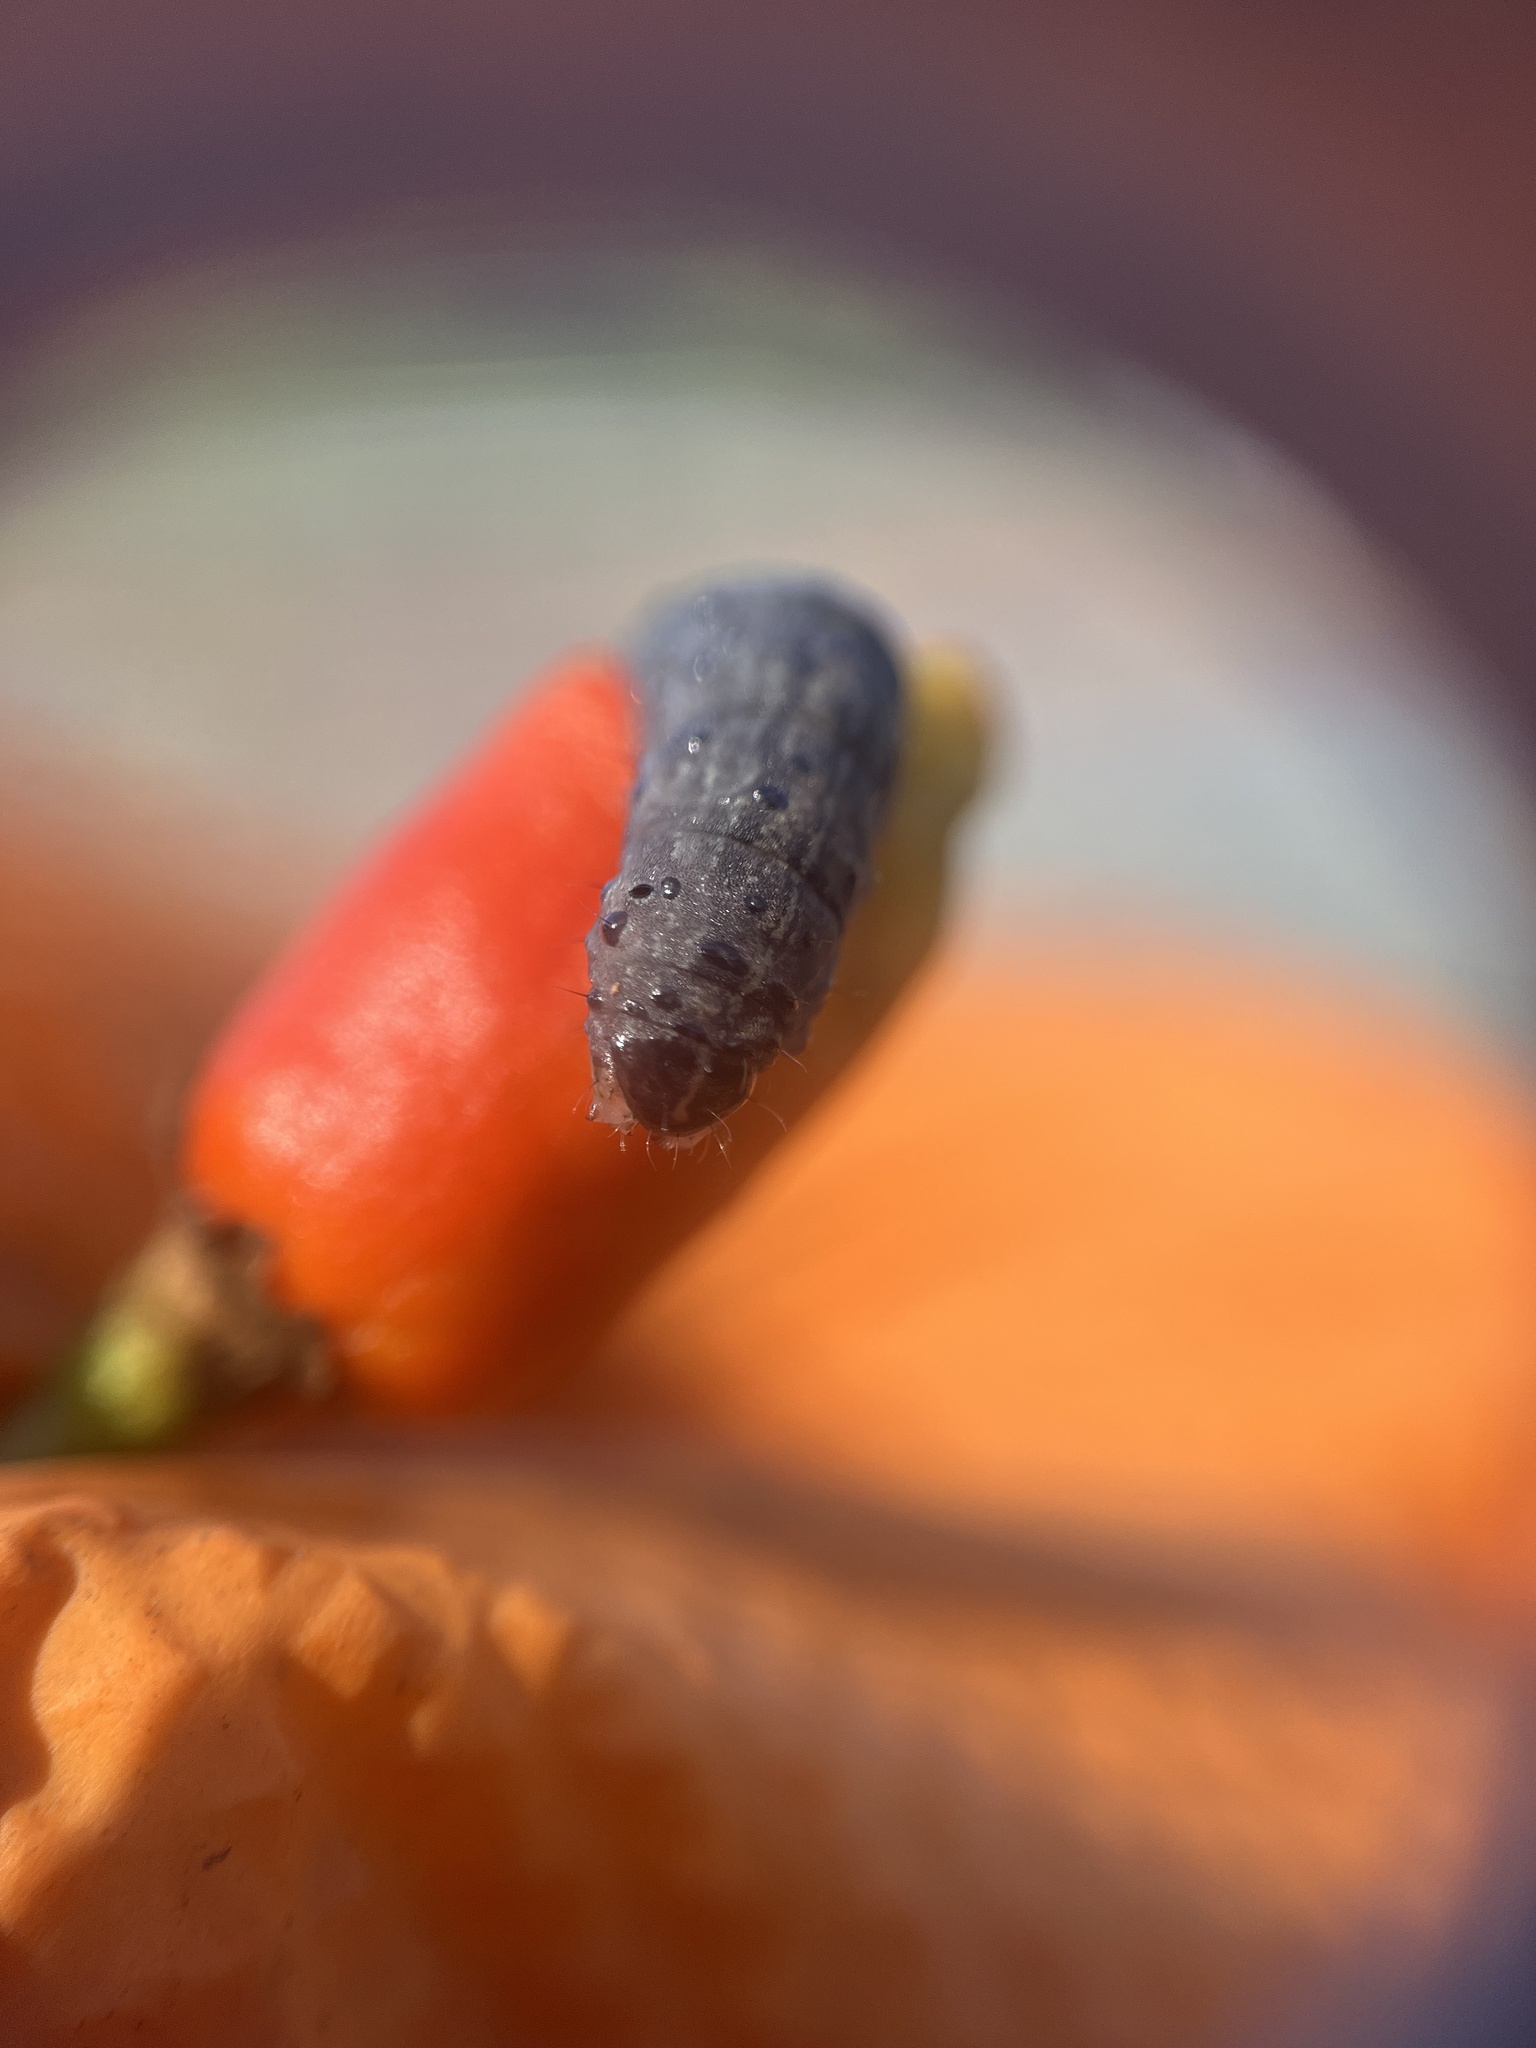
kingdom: Animalia
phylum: Arthropoda
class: Insecta
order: Lepidoptera
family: Noctuidae
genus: Agrochola
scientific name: Agrochola bicolorago
